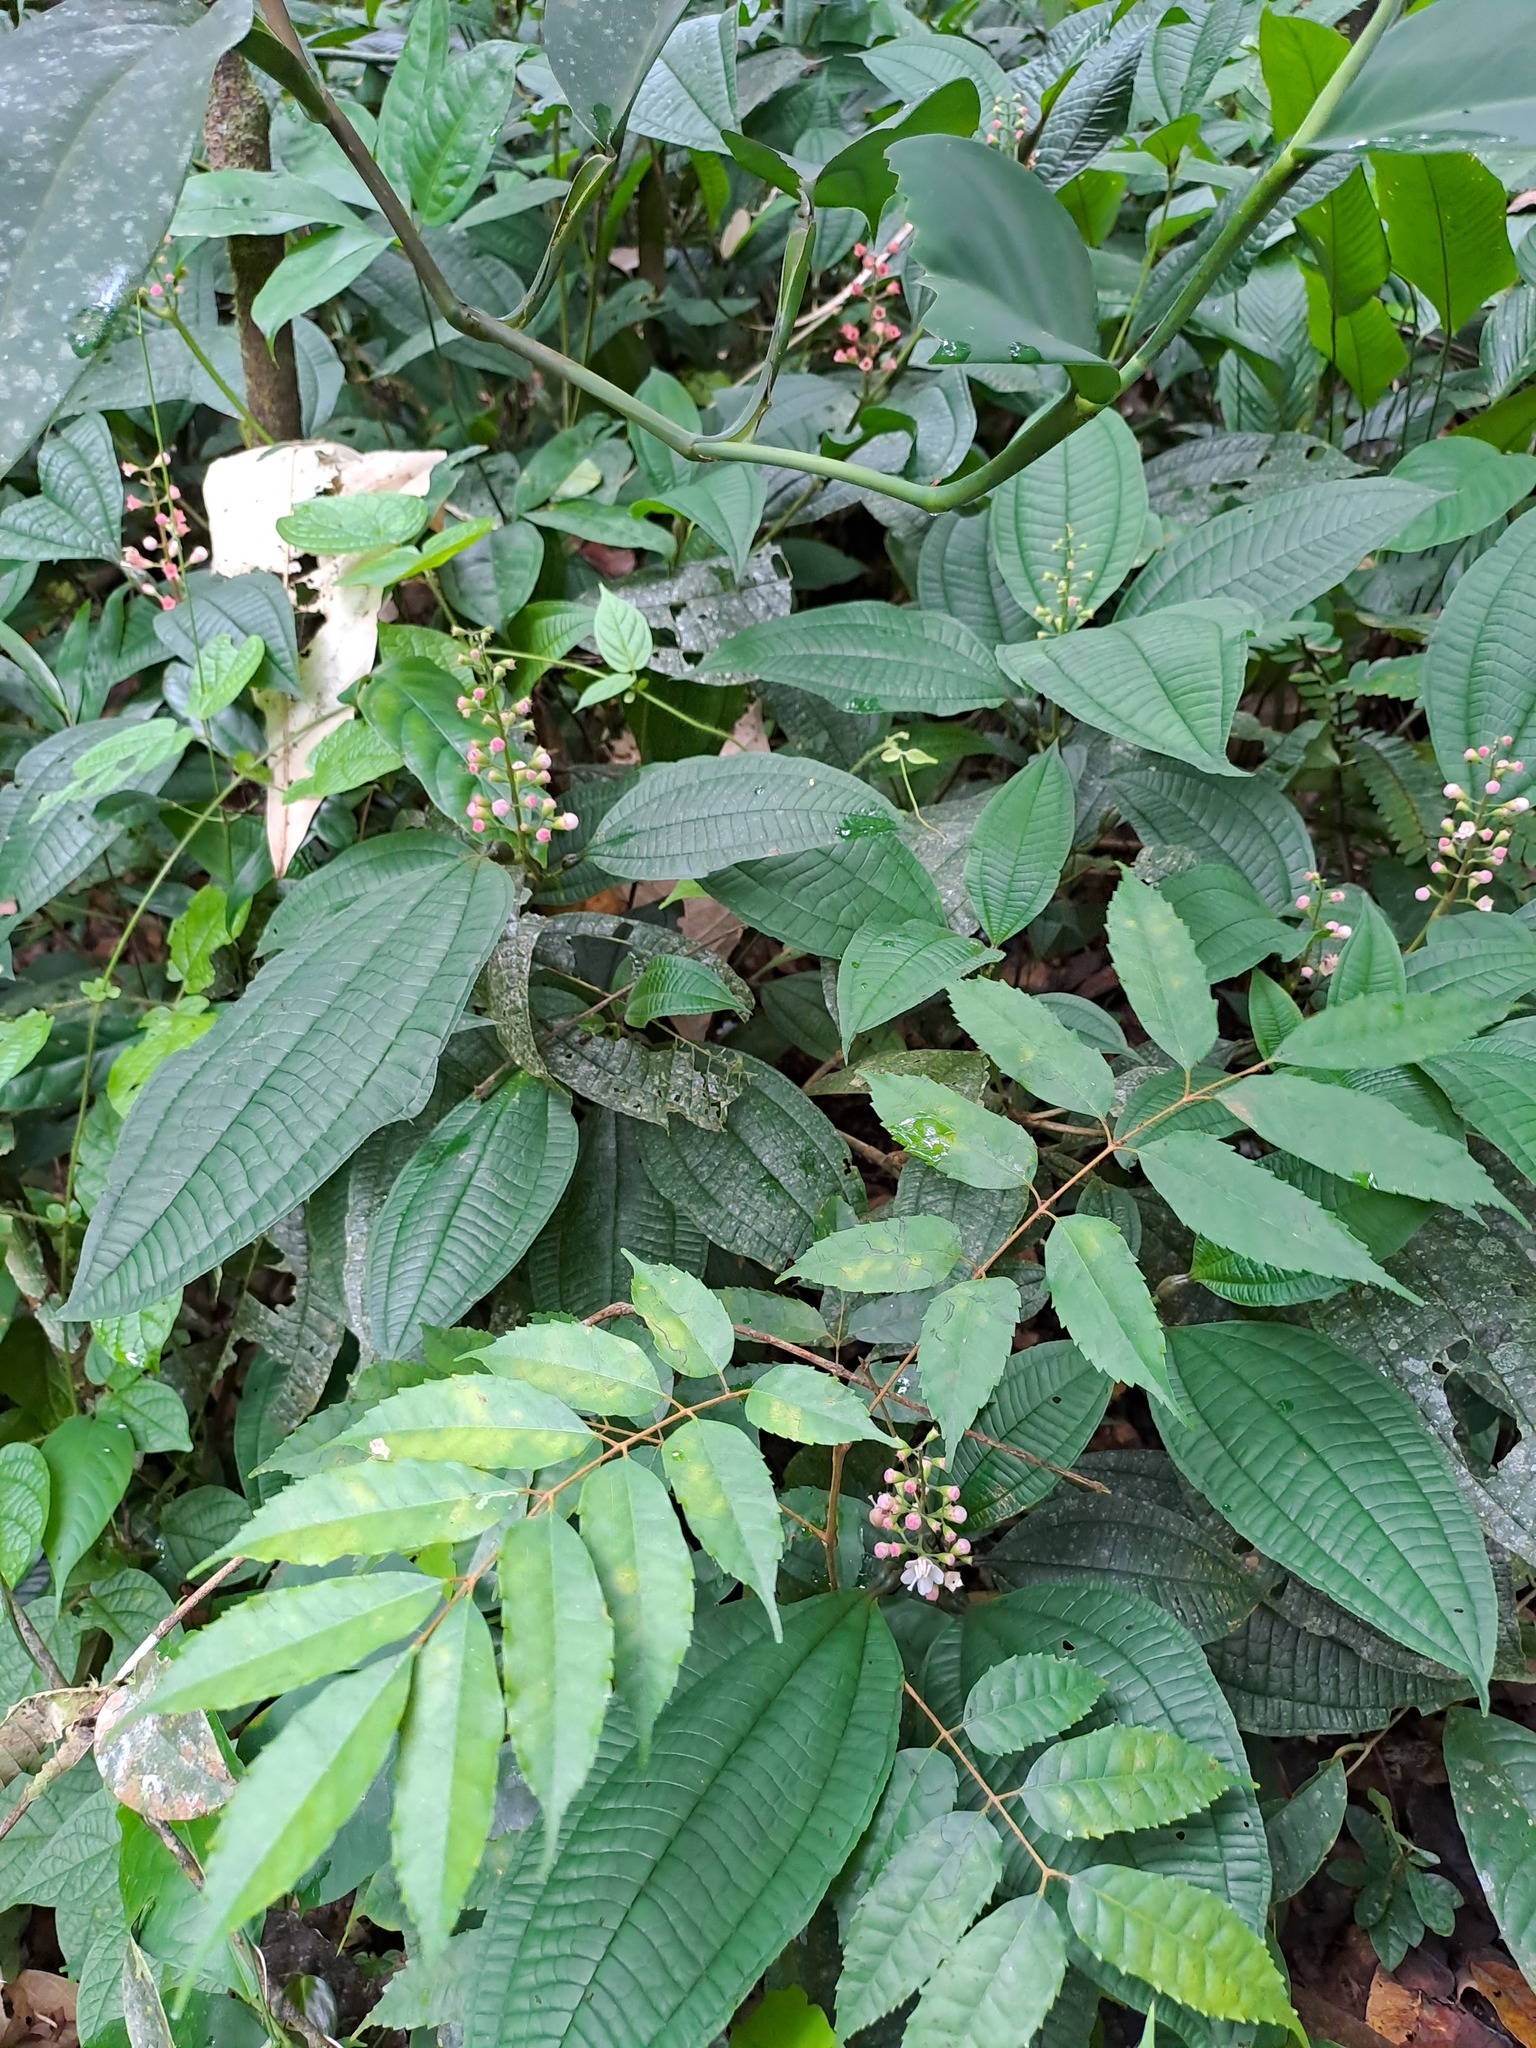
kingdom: Plantae
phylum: Tracheophyta
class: Magnoliopsida
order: Myrtales
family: Melastomataceae
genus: Miconia
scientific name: Miconia bullifera
